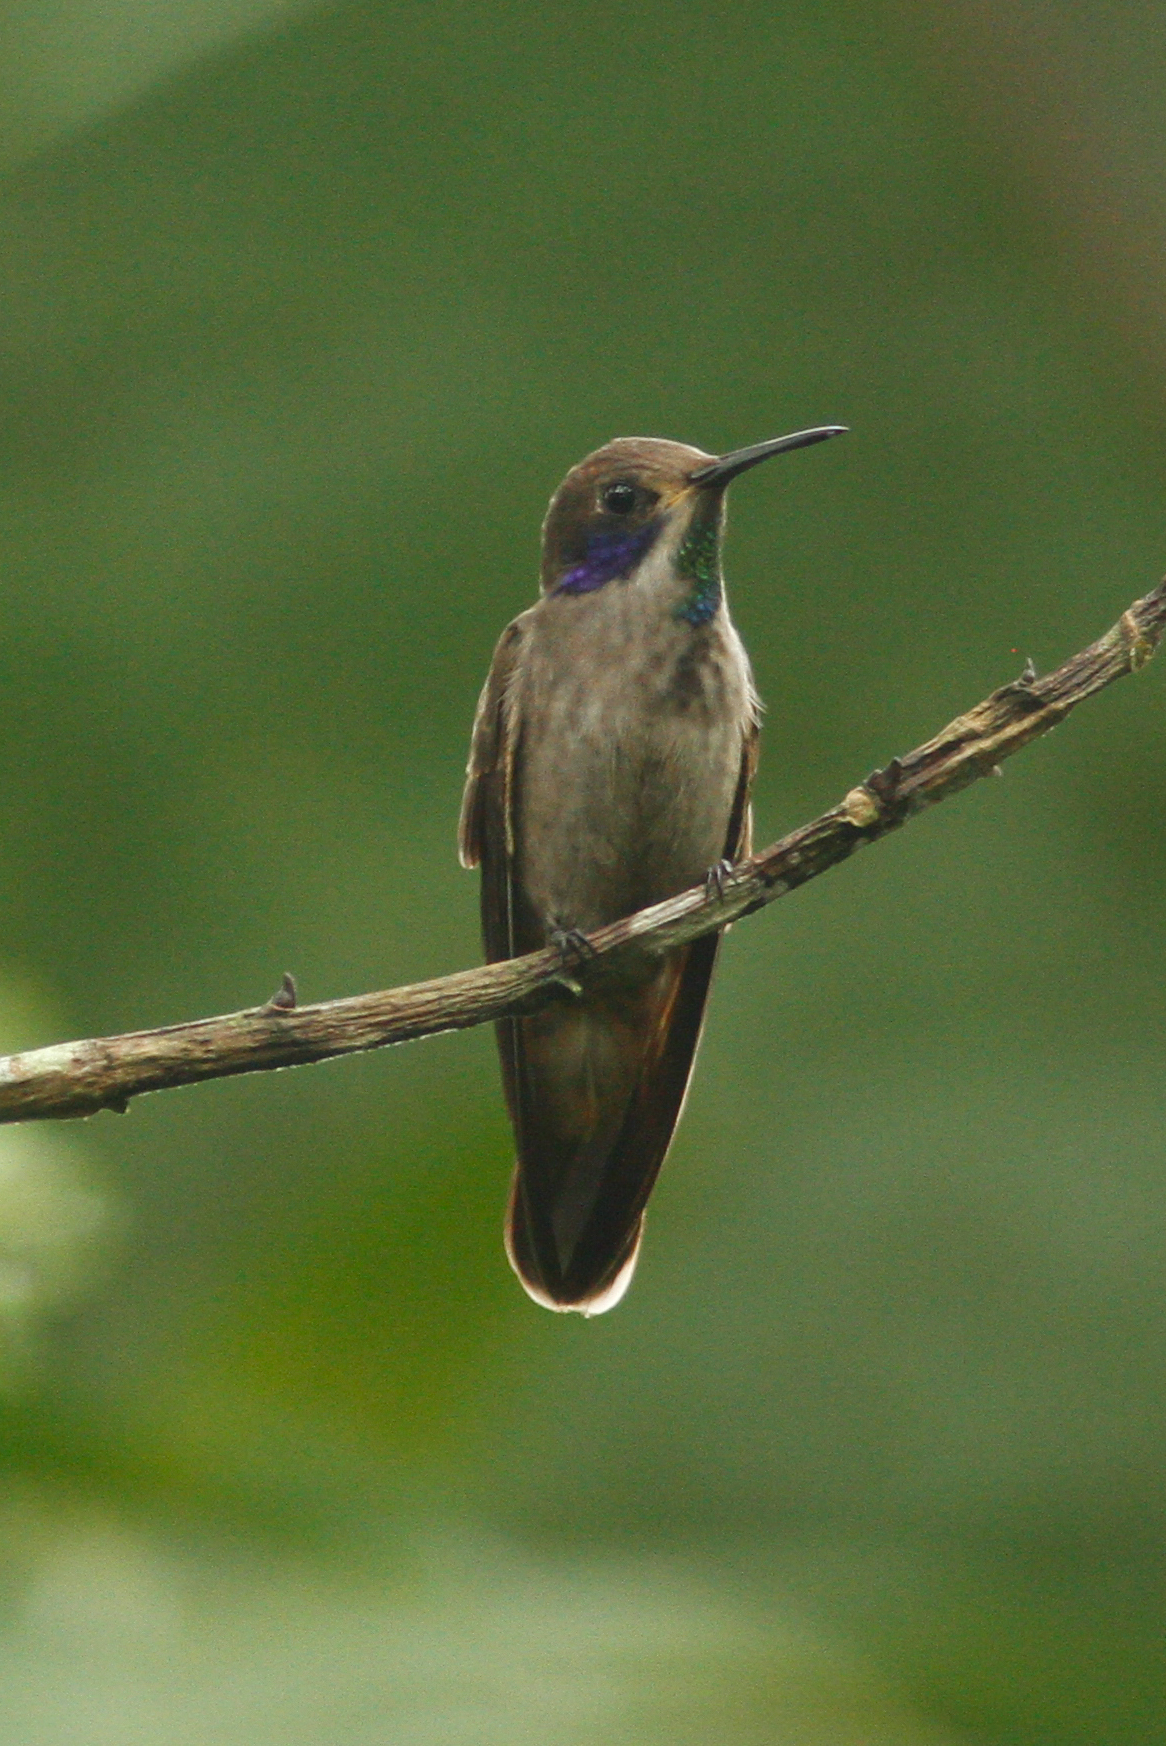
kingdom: Animalia
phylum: Chordata
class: Aves
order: Apodiformes
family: Trochilidae
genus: Colibri
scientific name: Colibri delphinae
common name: Brown violetear
